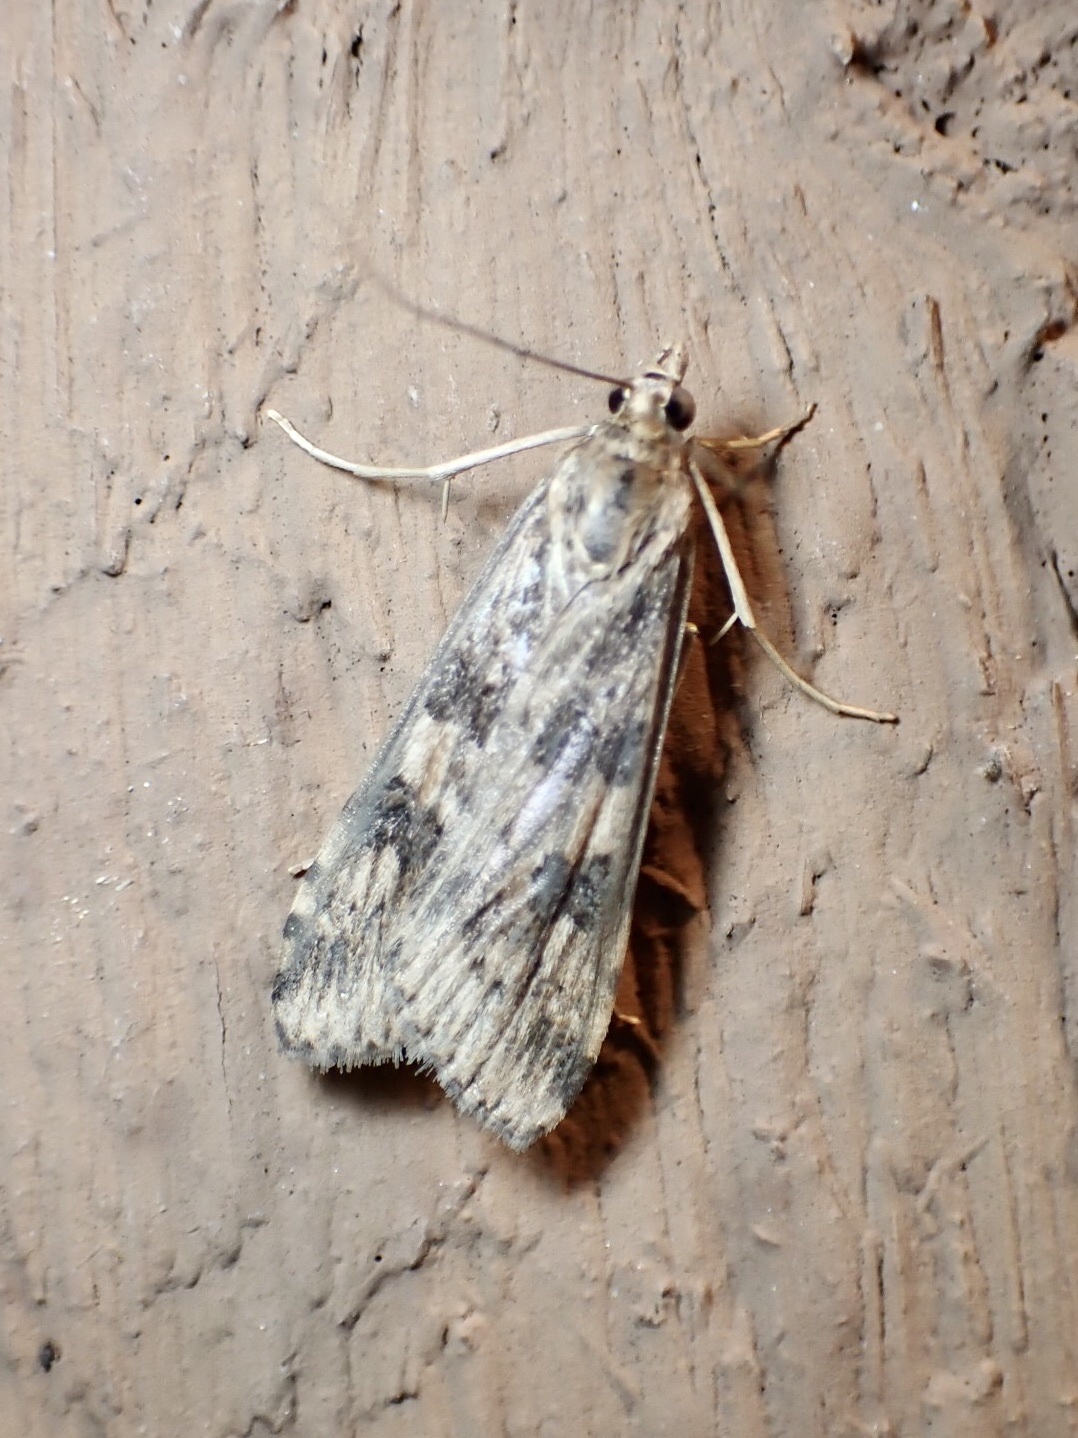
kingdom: Animalia
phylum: Arthropoda
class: Insecta
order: Lepidoptera
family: Crambidae
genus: Nomophila
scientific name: Nomophila nearctica
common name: American rush veneer
